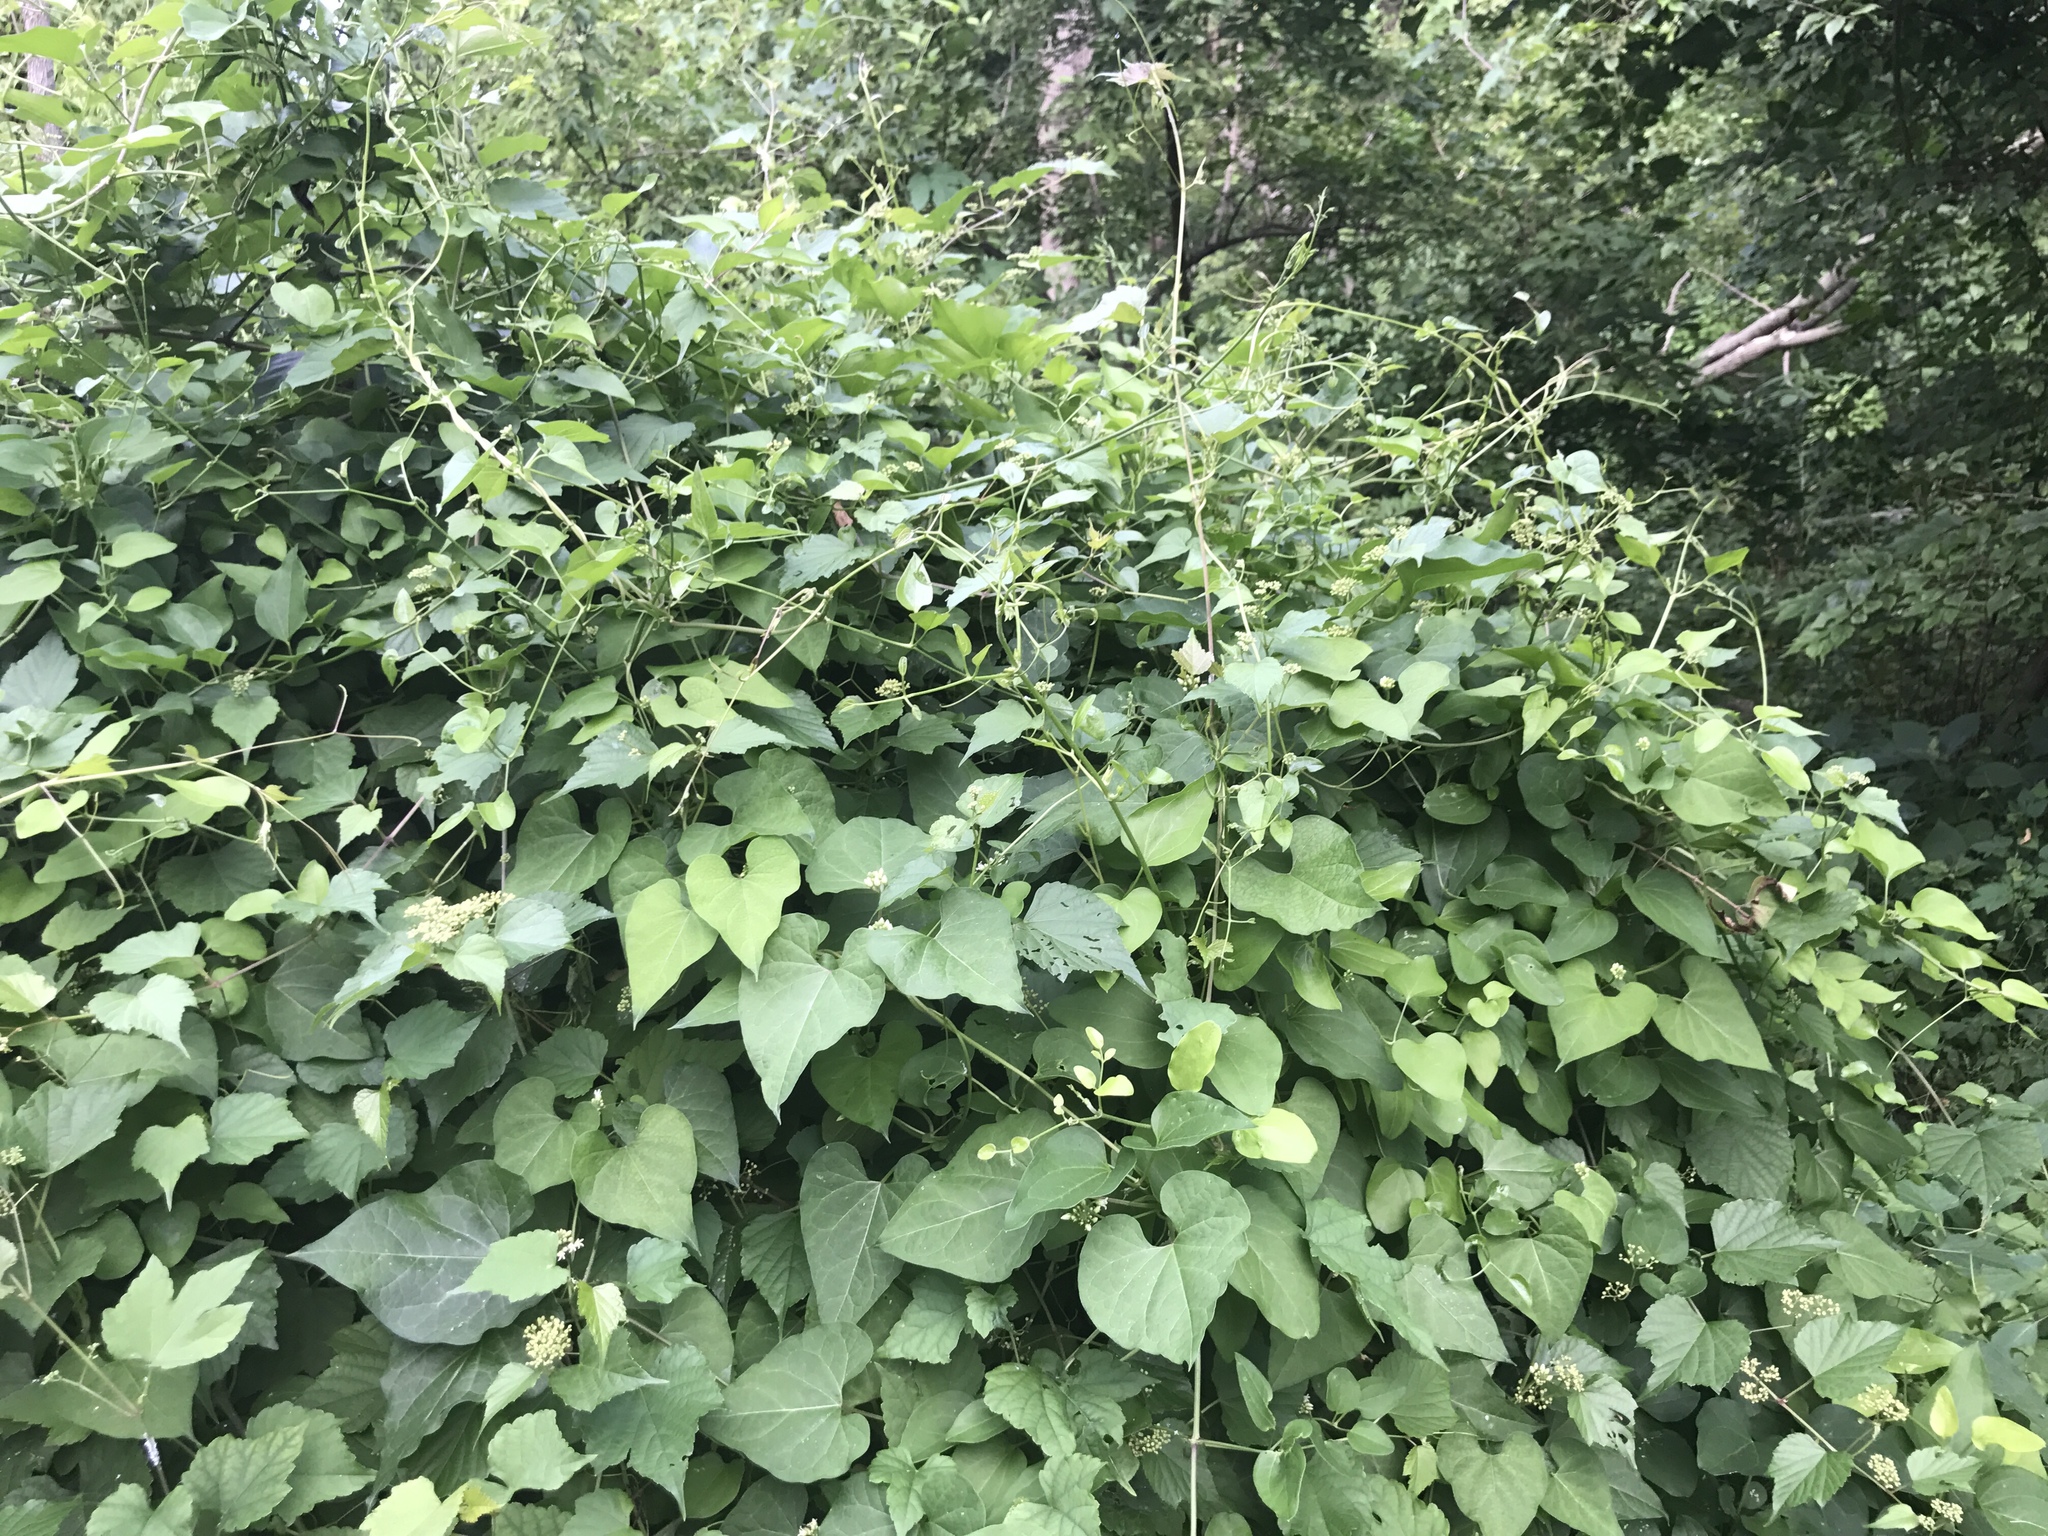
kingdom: Plantae
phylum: Tracheophyta
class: Magnoliopsida
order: Gentianales
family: Apocynaceae
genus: Cynanchum
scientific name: Cynanchum laeve
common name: Sandvine
